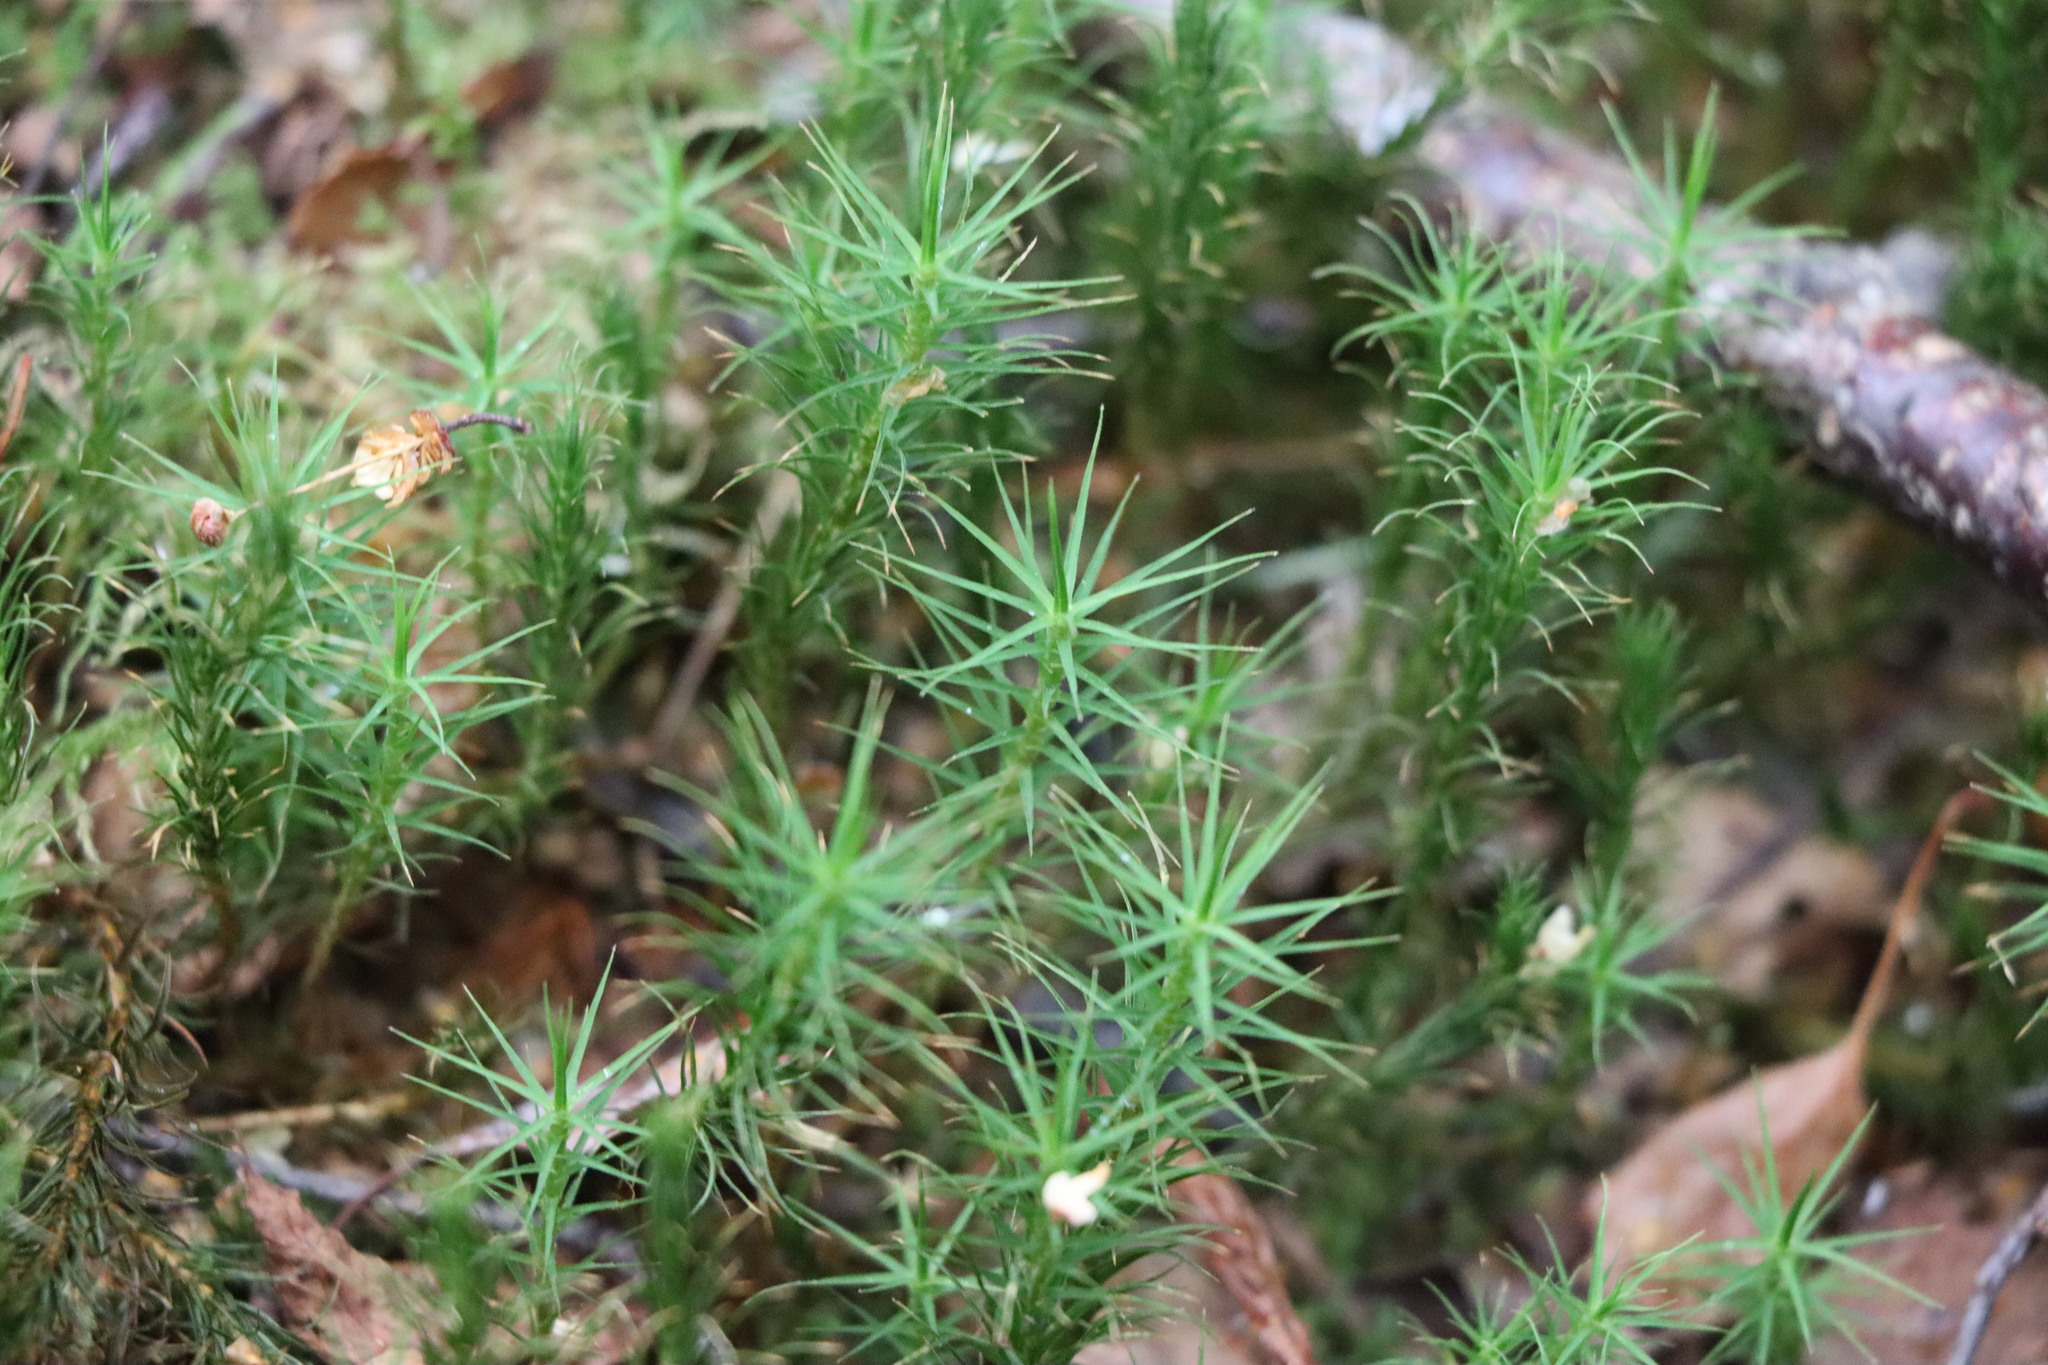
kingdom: Plantae
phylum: Bryophyta
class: Polytrichopsida
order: Polytrichales
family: Polytrichaceae
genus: Polytrichum
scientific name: Polytrichum commune
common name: Common haircap
